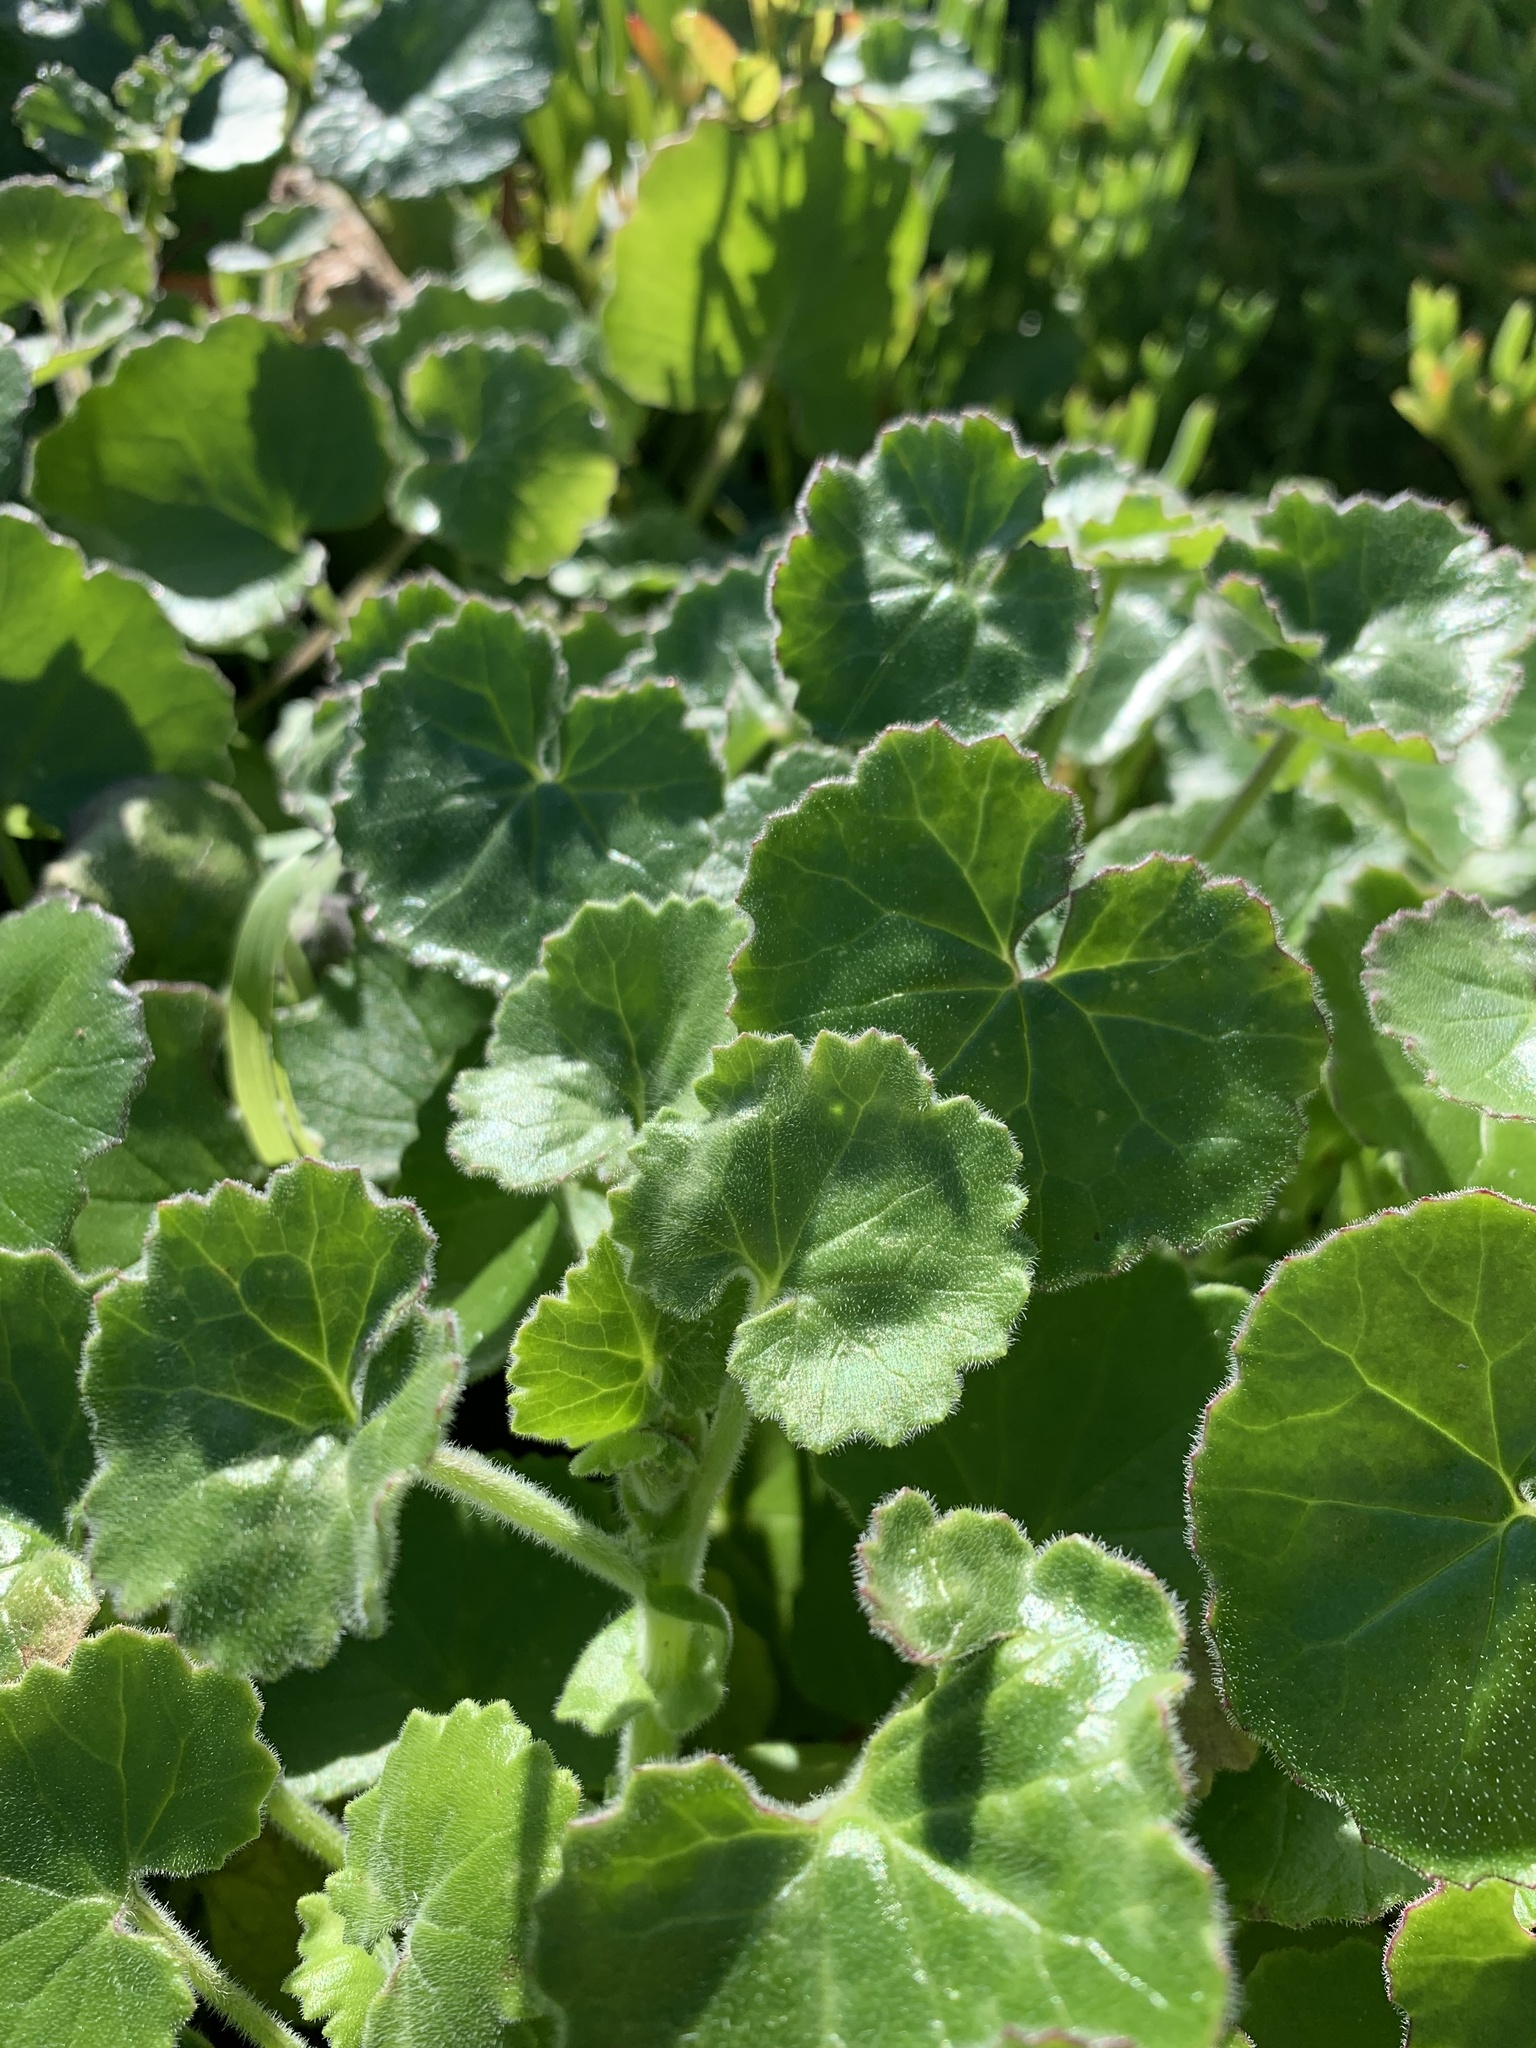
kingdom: Plantae
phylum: Tracheophyta
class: Magnoliopsida
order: Asterales
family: Asteraceae
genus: Cineraria
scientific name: Cineraria geifolia
